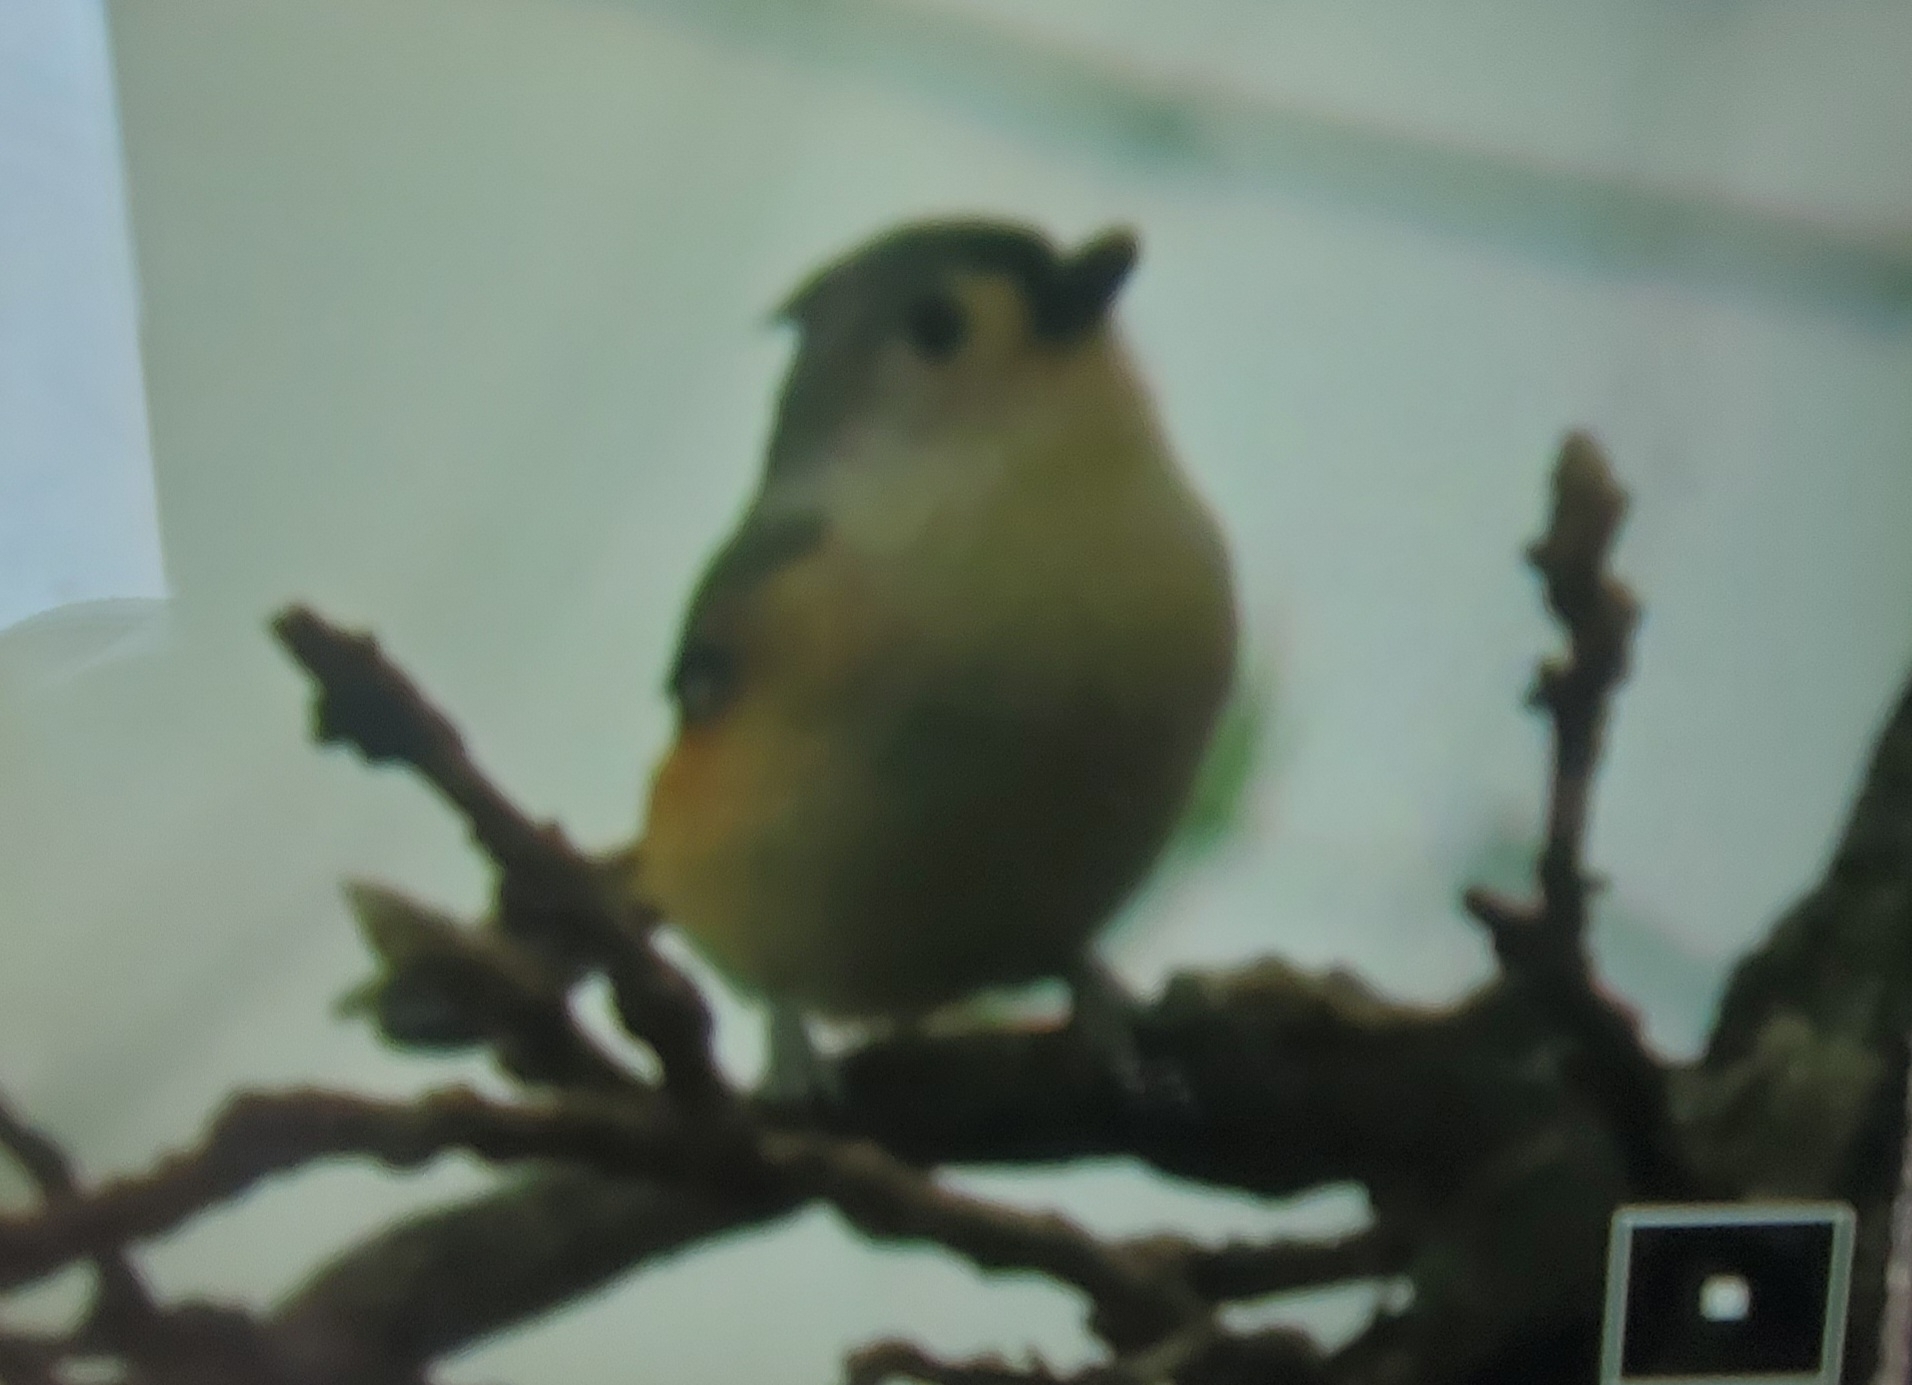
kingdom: Animalia
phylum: Chordata
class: Aves
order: Passeriformes
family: Paridae
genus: Baeolophus
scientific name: Baeolophus bicolor
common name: Tufted titmouse
